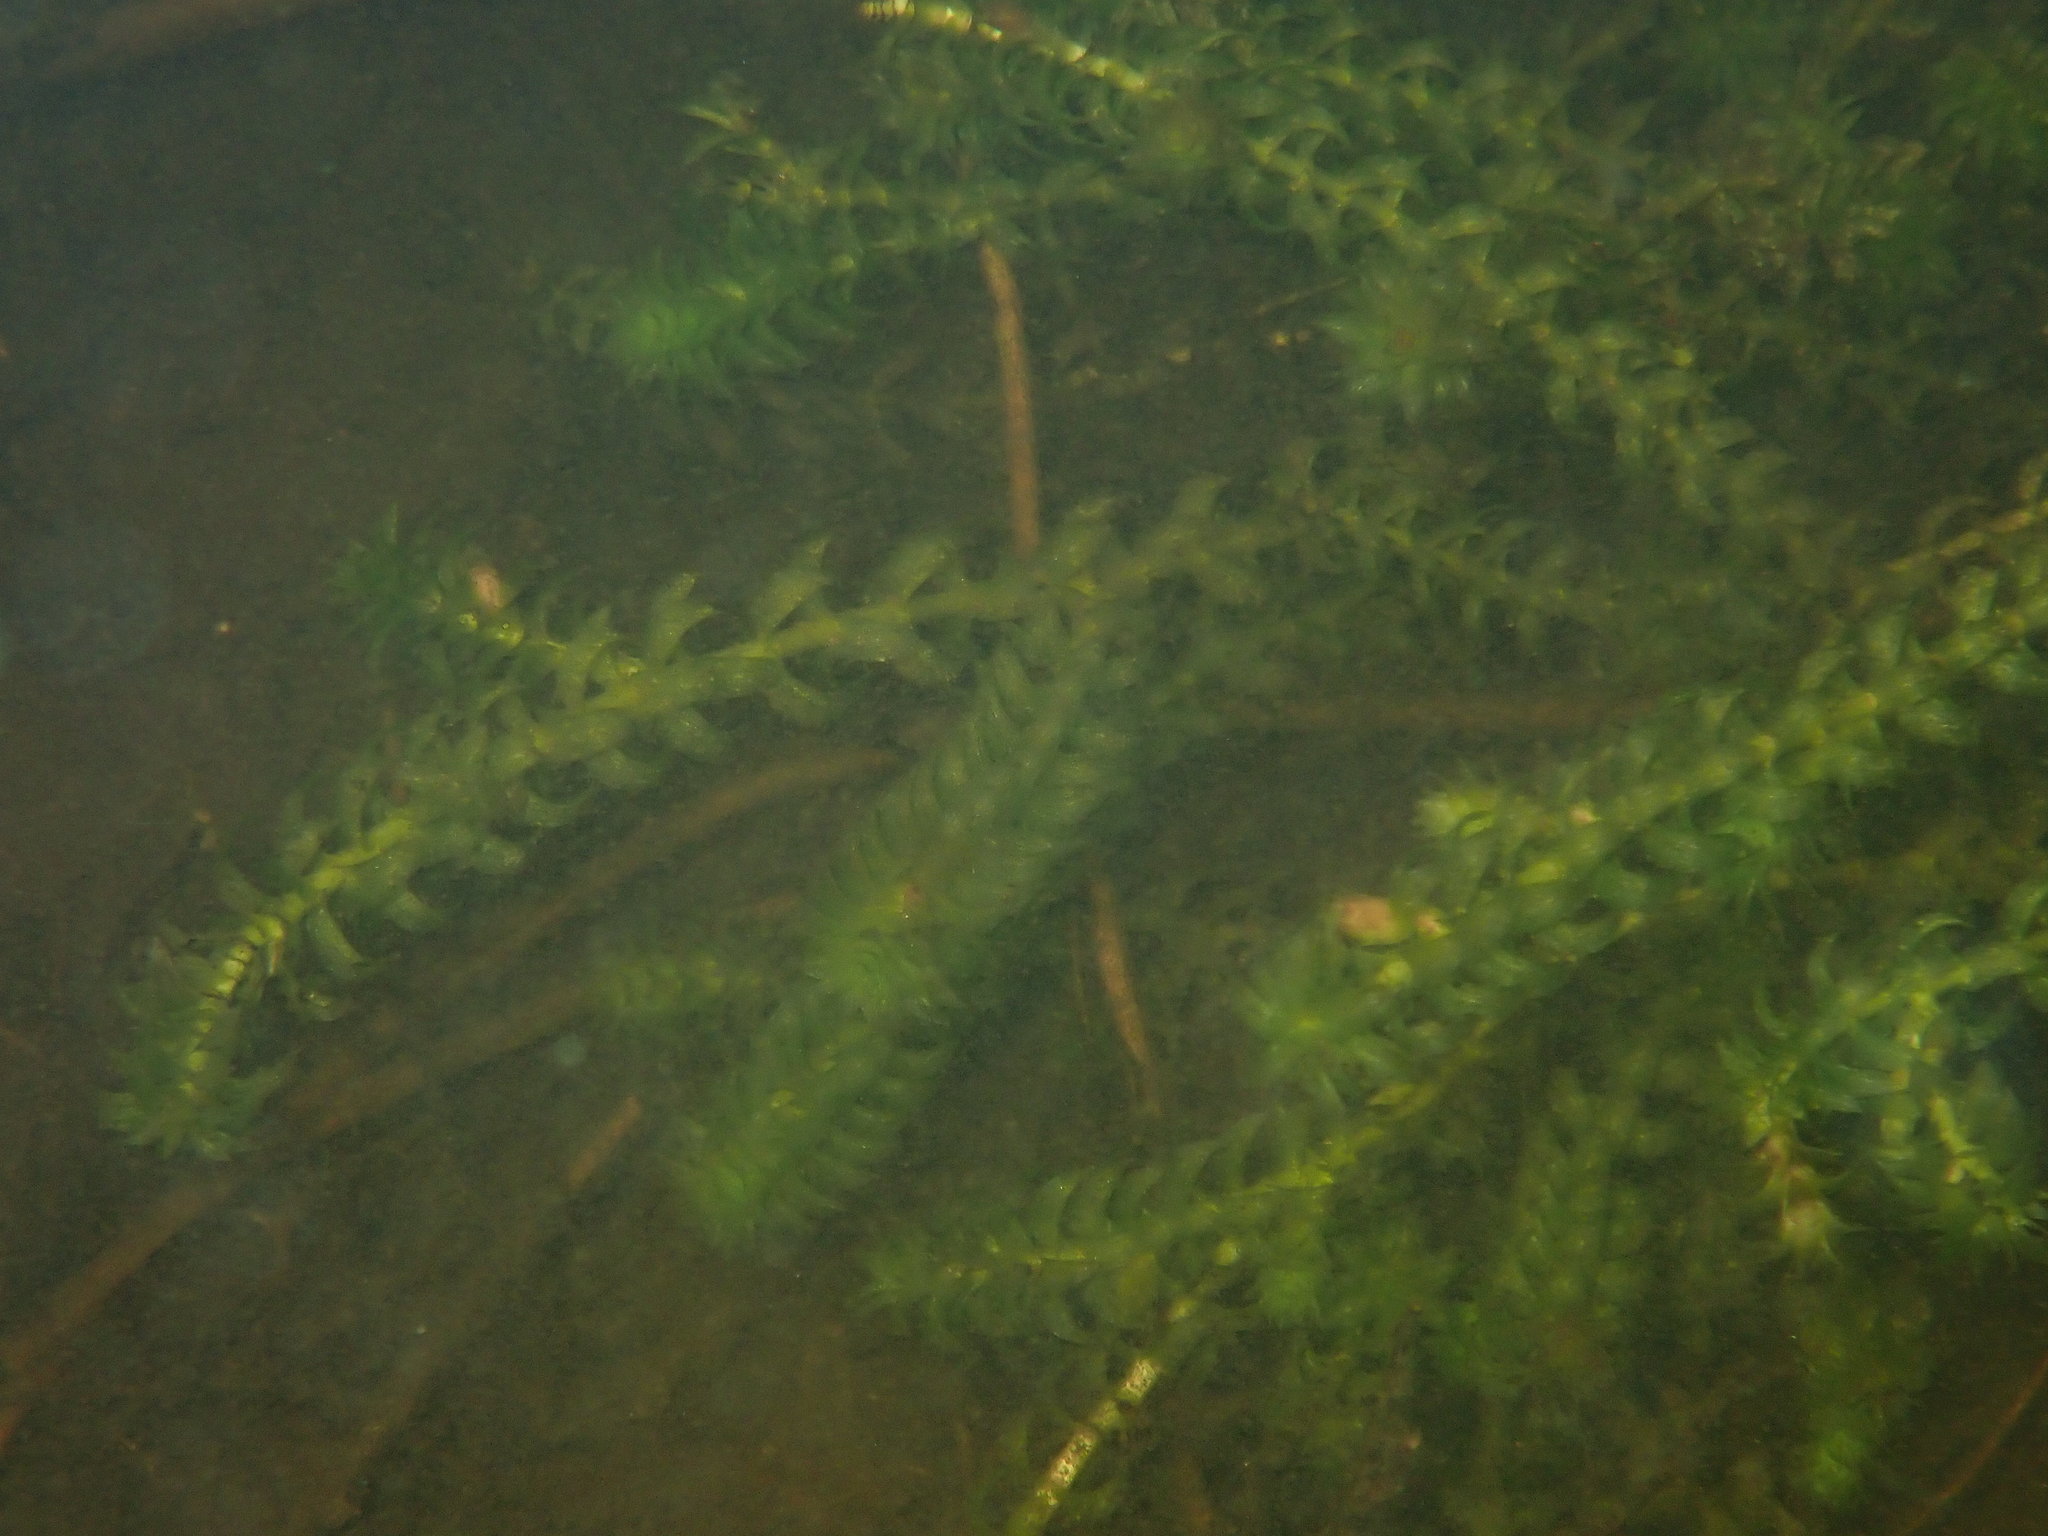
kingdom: Plantae
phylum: Tracheophyta
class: Liliopsida
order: Alismatales
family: Hydrocharitaceae
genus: Elodea
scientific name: Elodea canadensis
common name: Canadian waterweed
